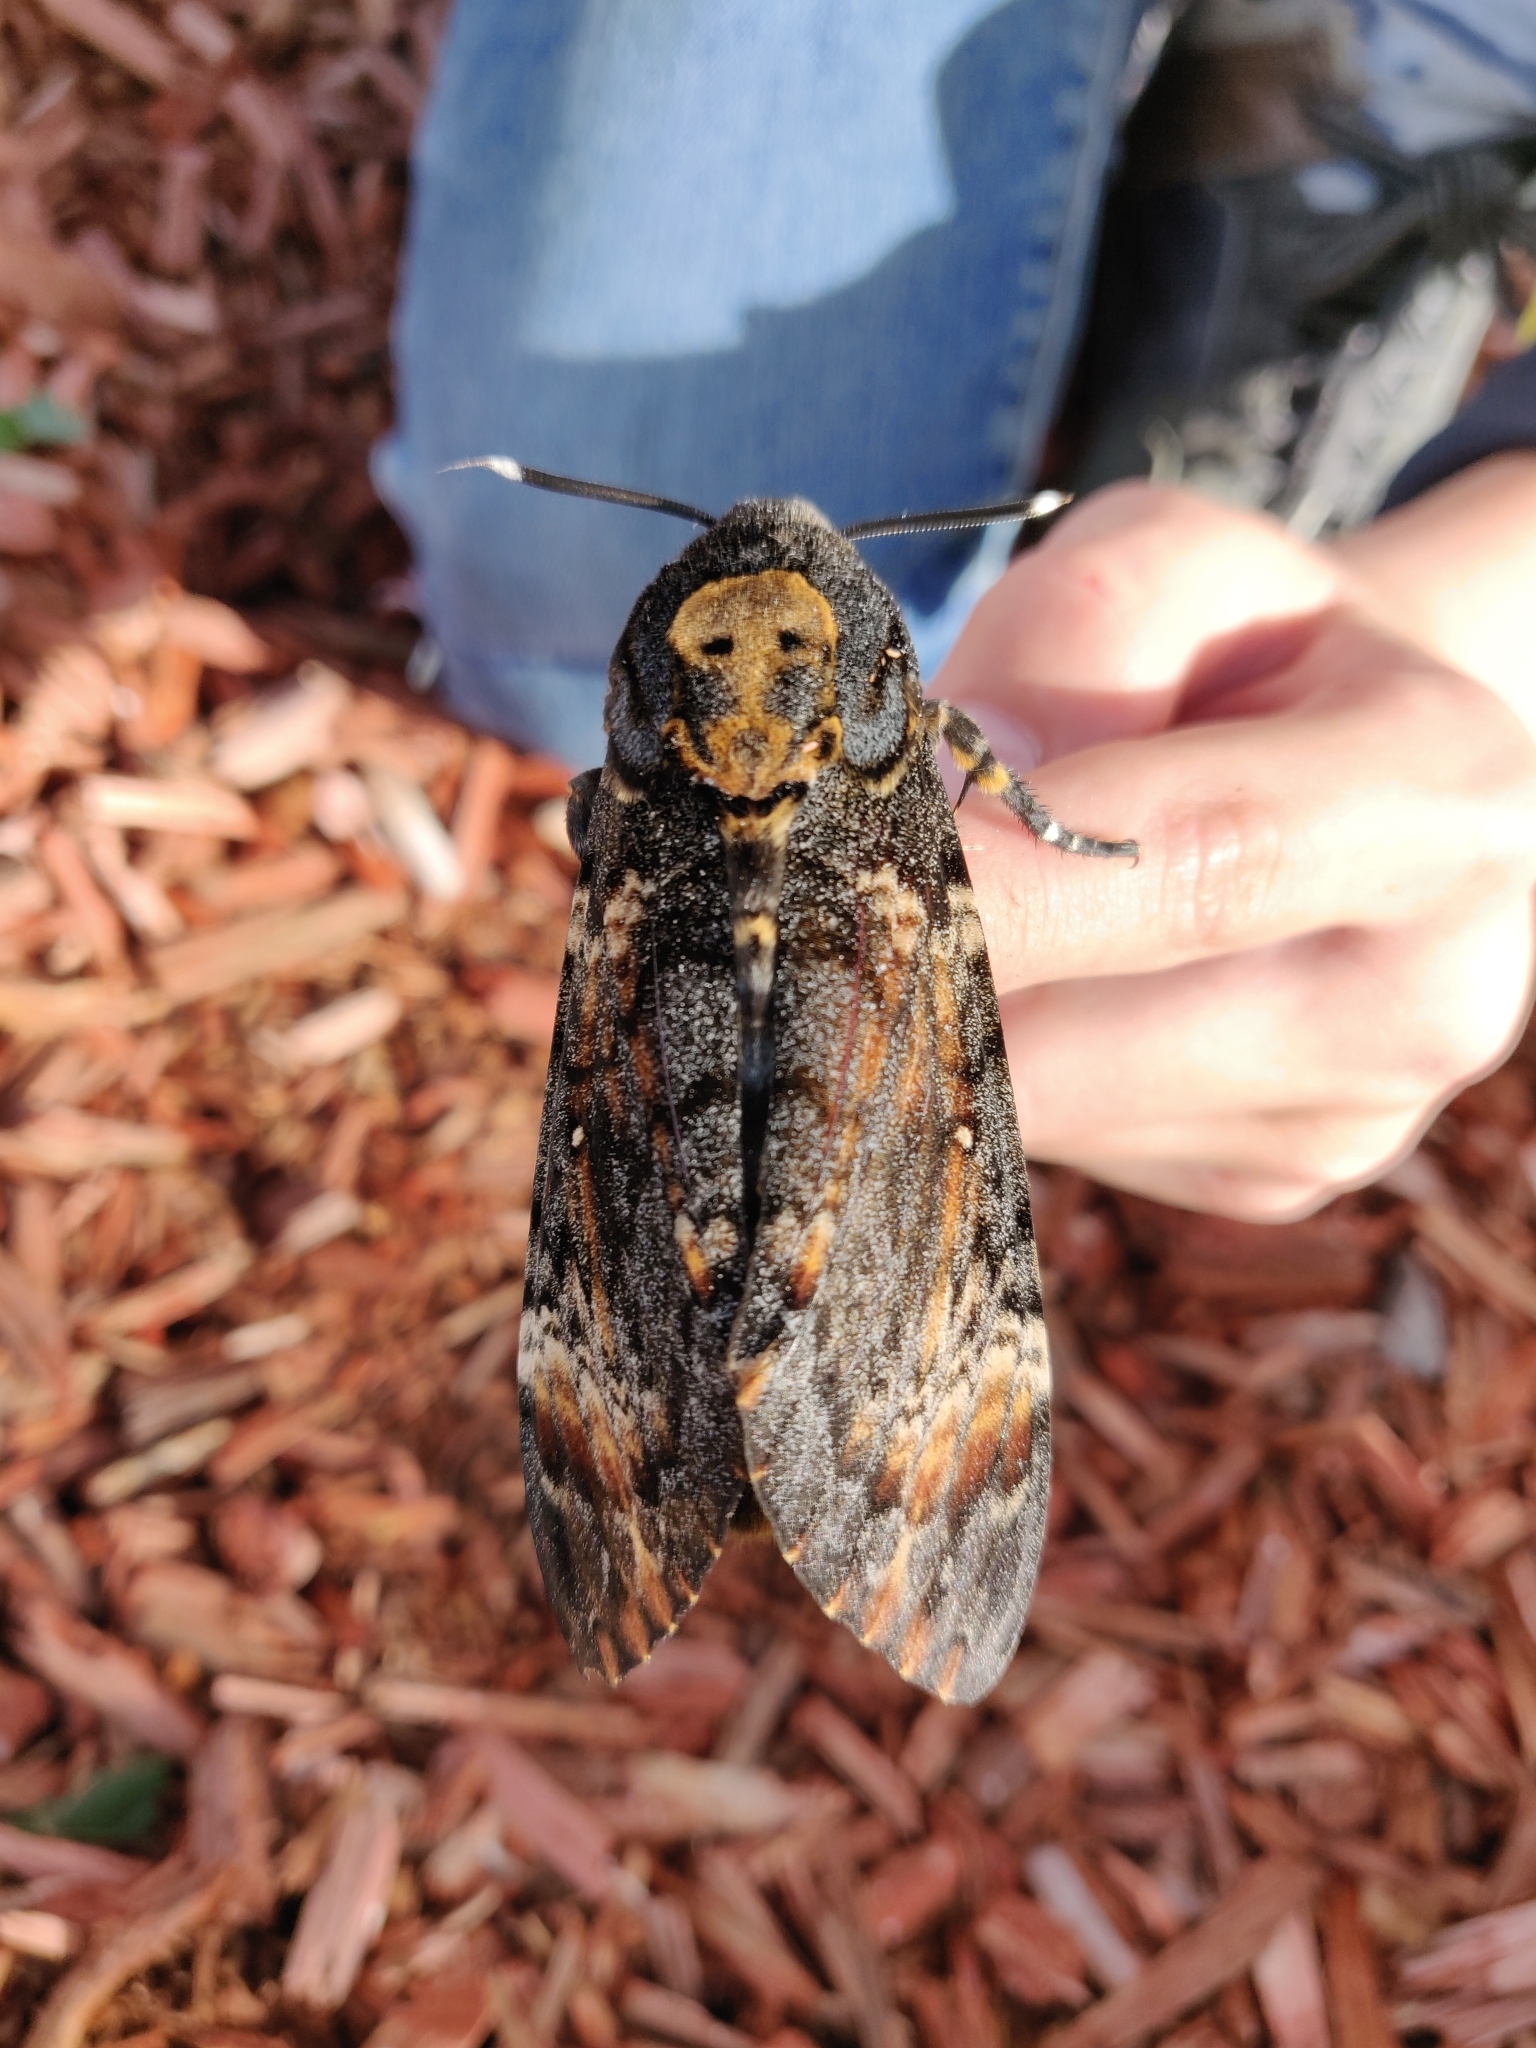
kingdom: Animalia
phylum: Arthropoda
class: Insecta
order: Lepidoptera
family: Sphingidae
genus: Acherontia
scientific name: Acherontia atropos
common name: Death's-head hawk moth
